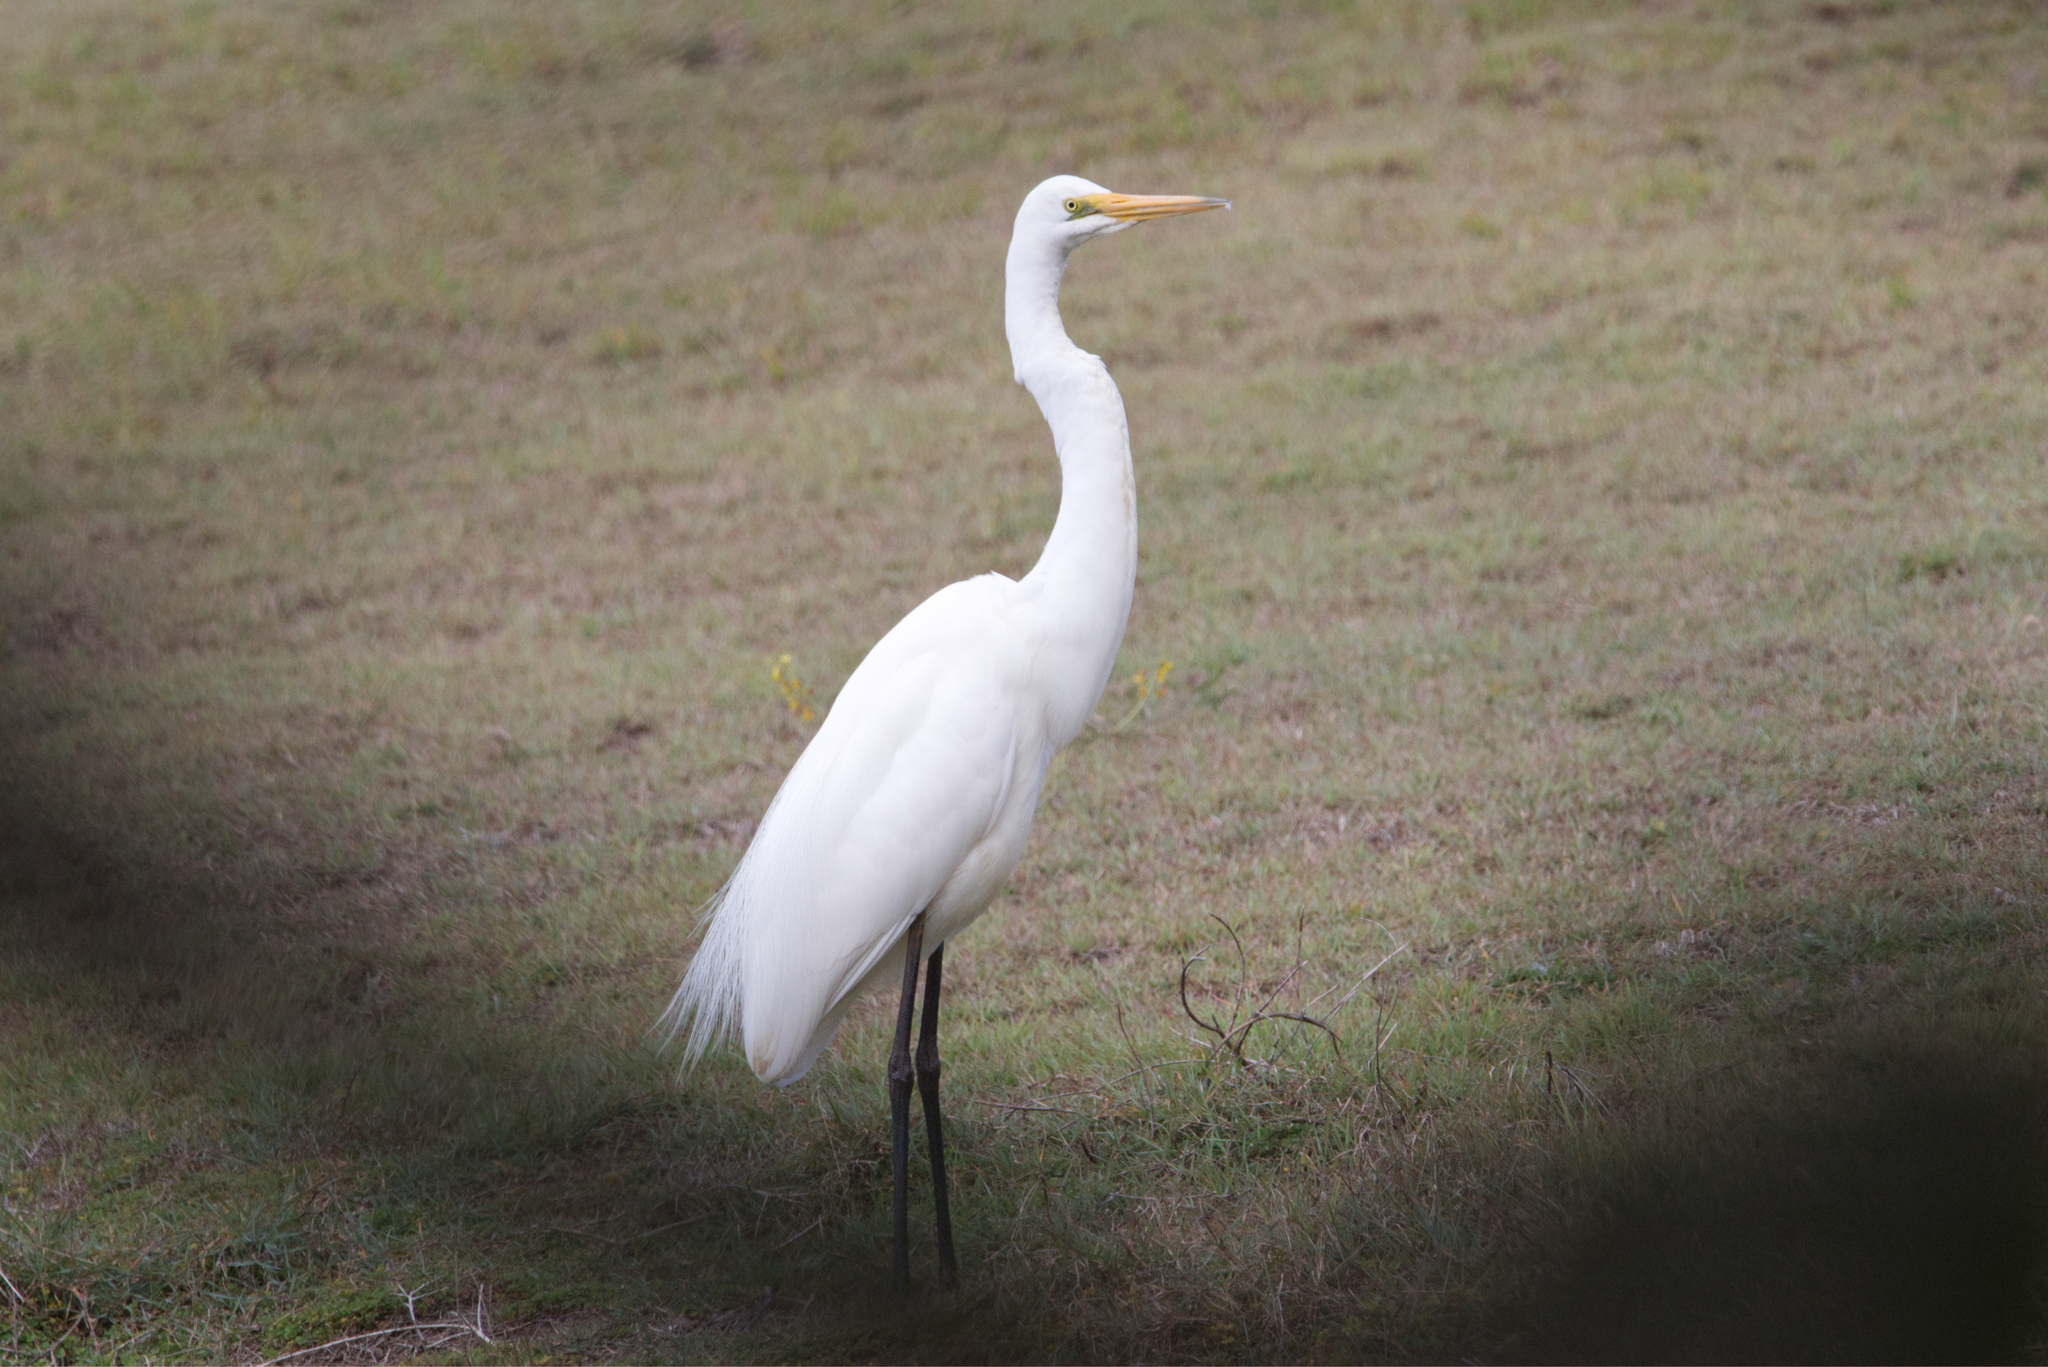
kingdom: Animalia
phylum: Chordata
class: Aves
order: Pelecaniformes
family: Ardeidae
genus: Ardea
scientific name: Ardea alba
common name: Great egret
